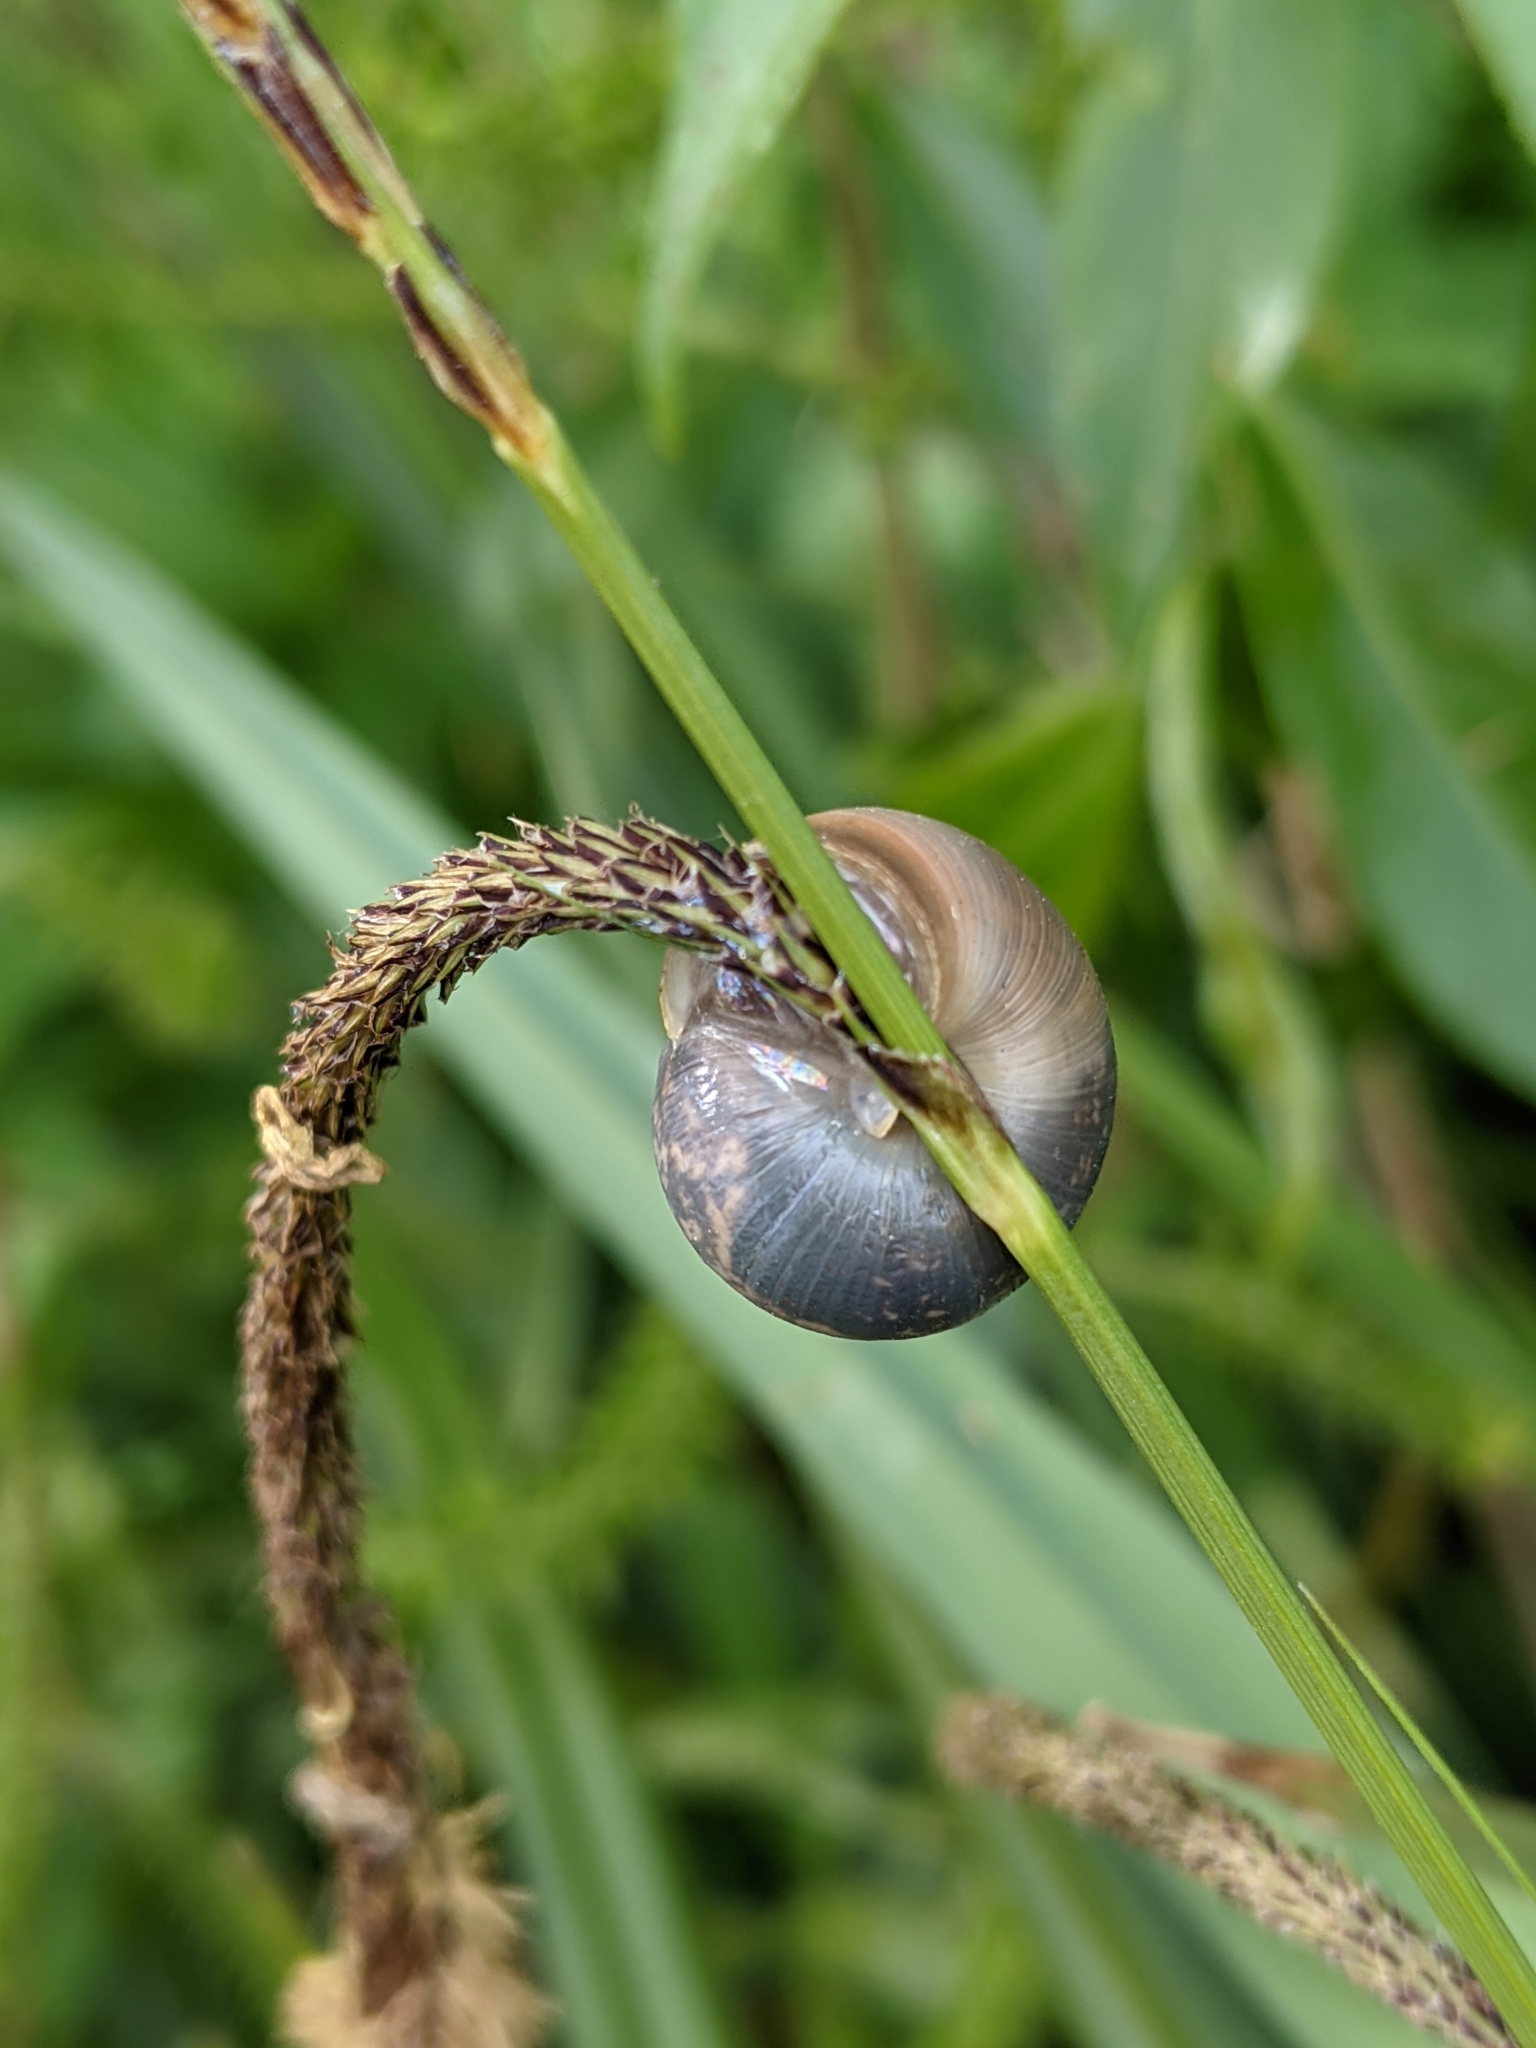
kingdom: Animalia
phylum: Mollusca
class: Gastropoda
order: Stylommatophora
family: Hygromiidae
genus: Monacha
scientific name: Monacha cantiana
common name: Kentish snail
